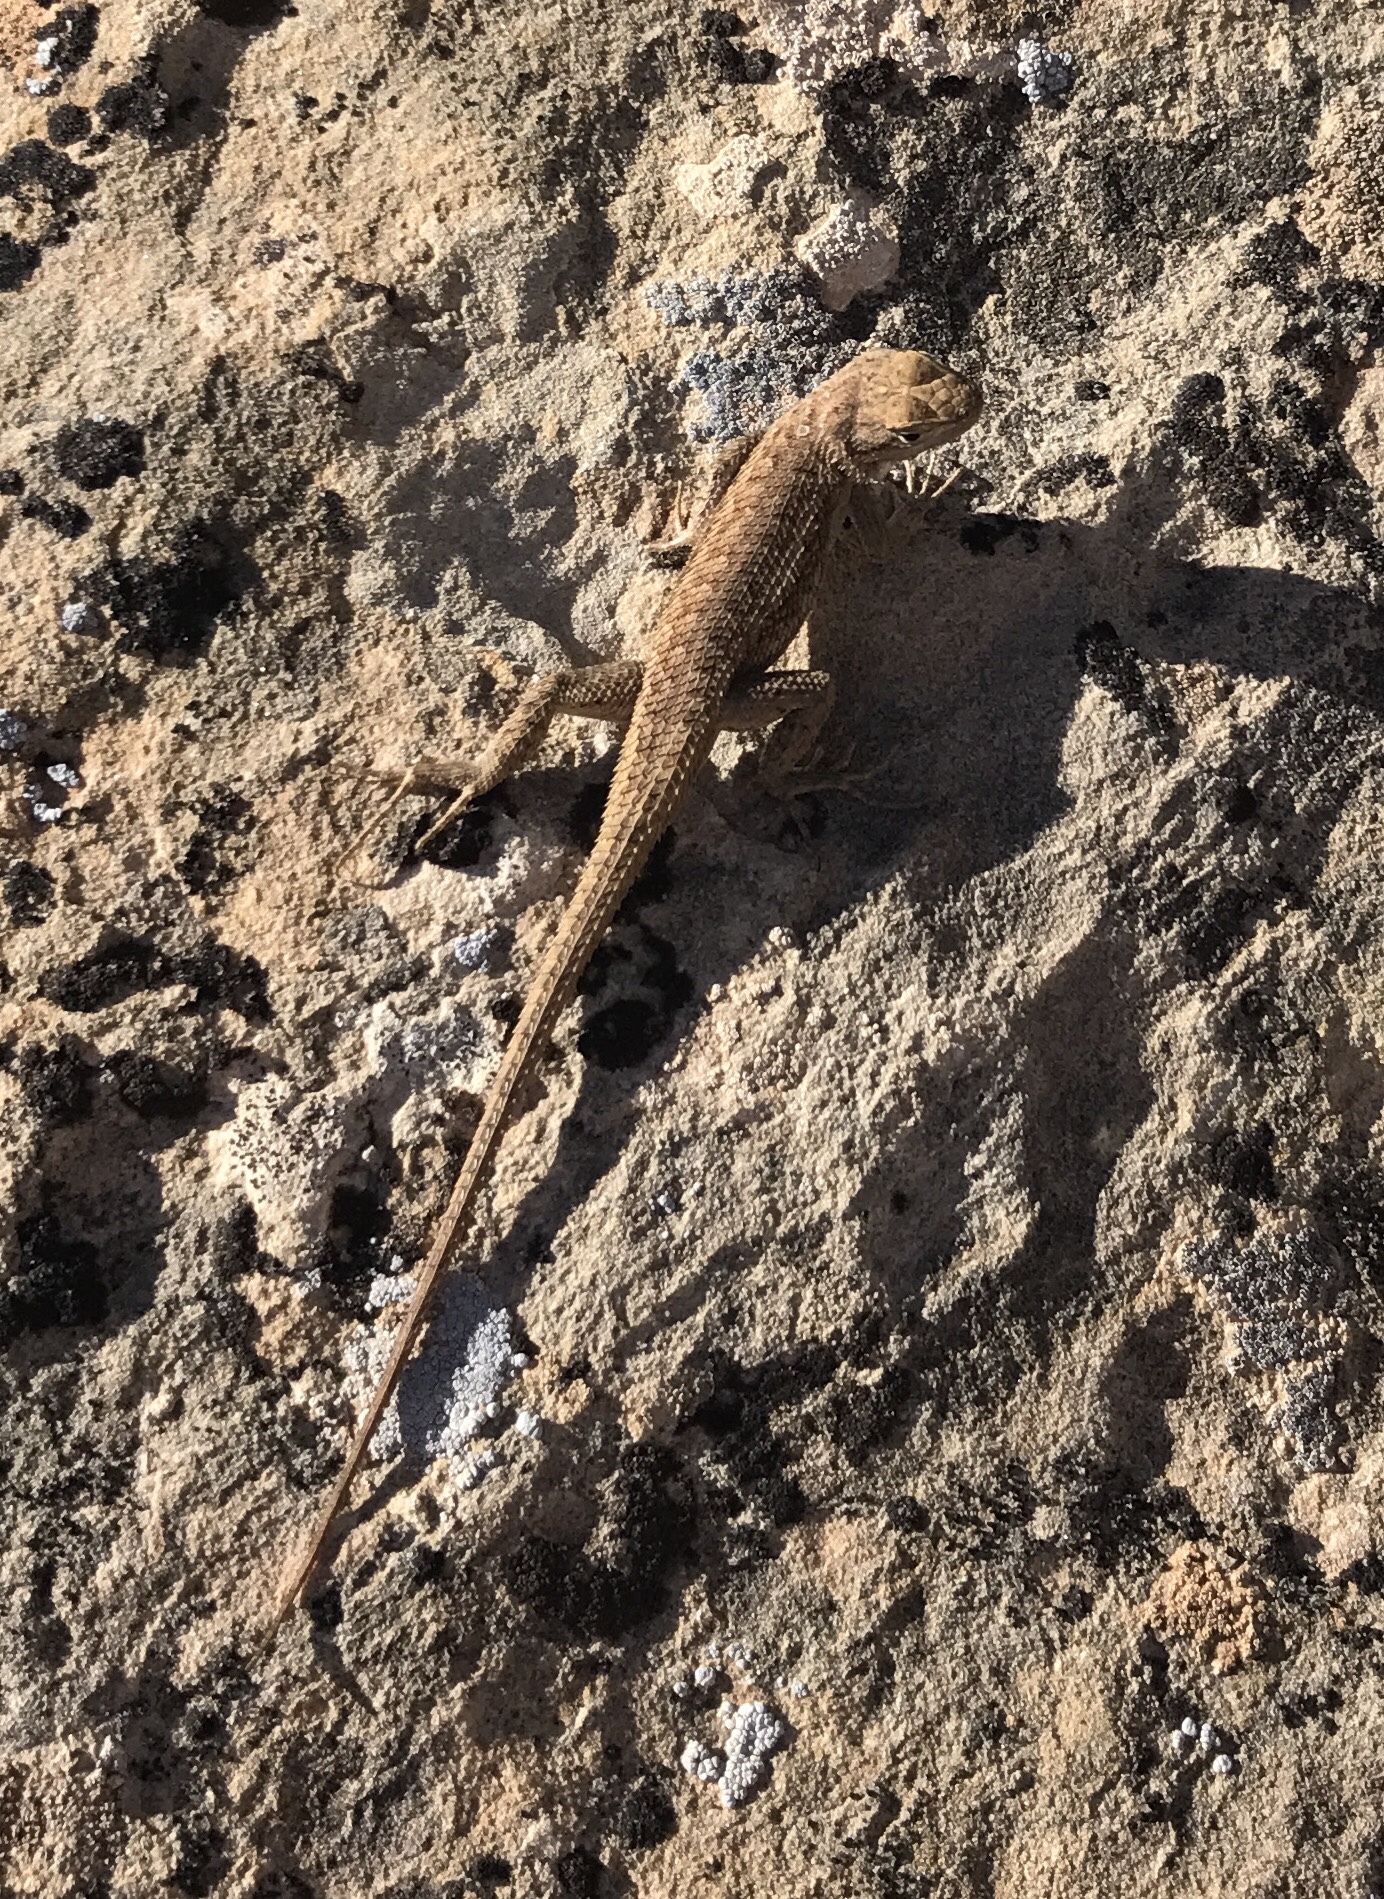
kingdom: Animalia
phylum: Chordata
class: Squamata
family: Phrynosomatidae
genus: Sceloporus
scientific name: Sceloporus tristichus
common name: Plateau fence lizard
